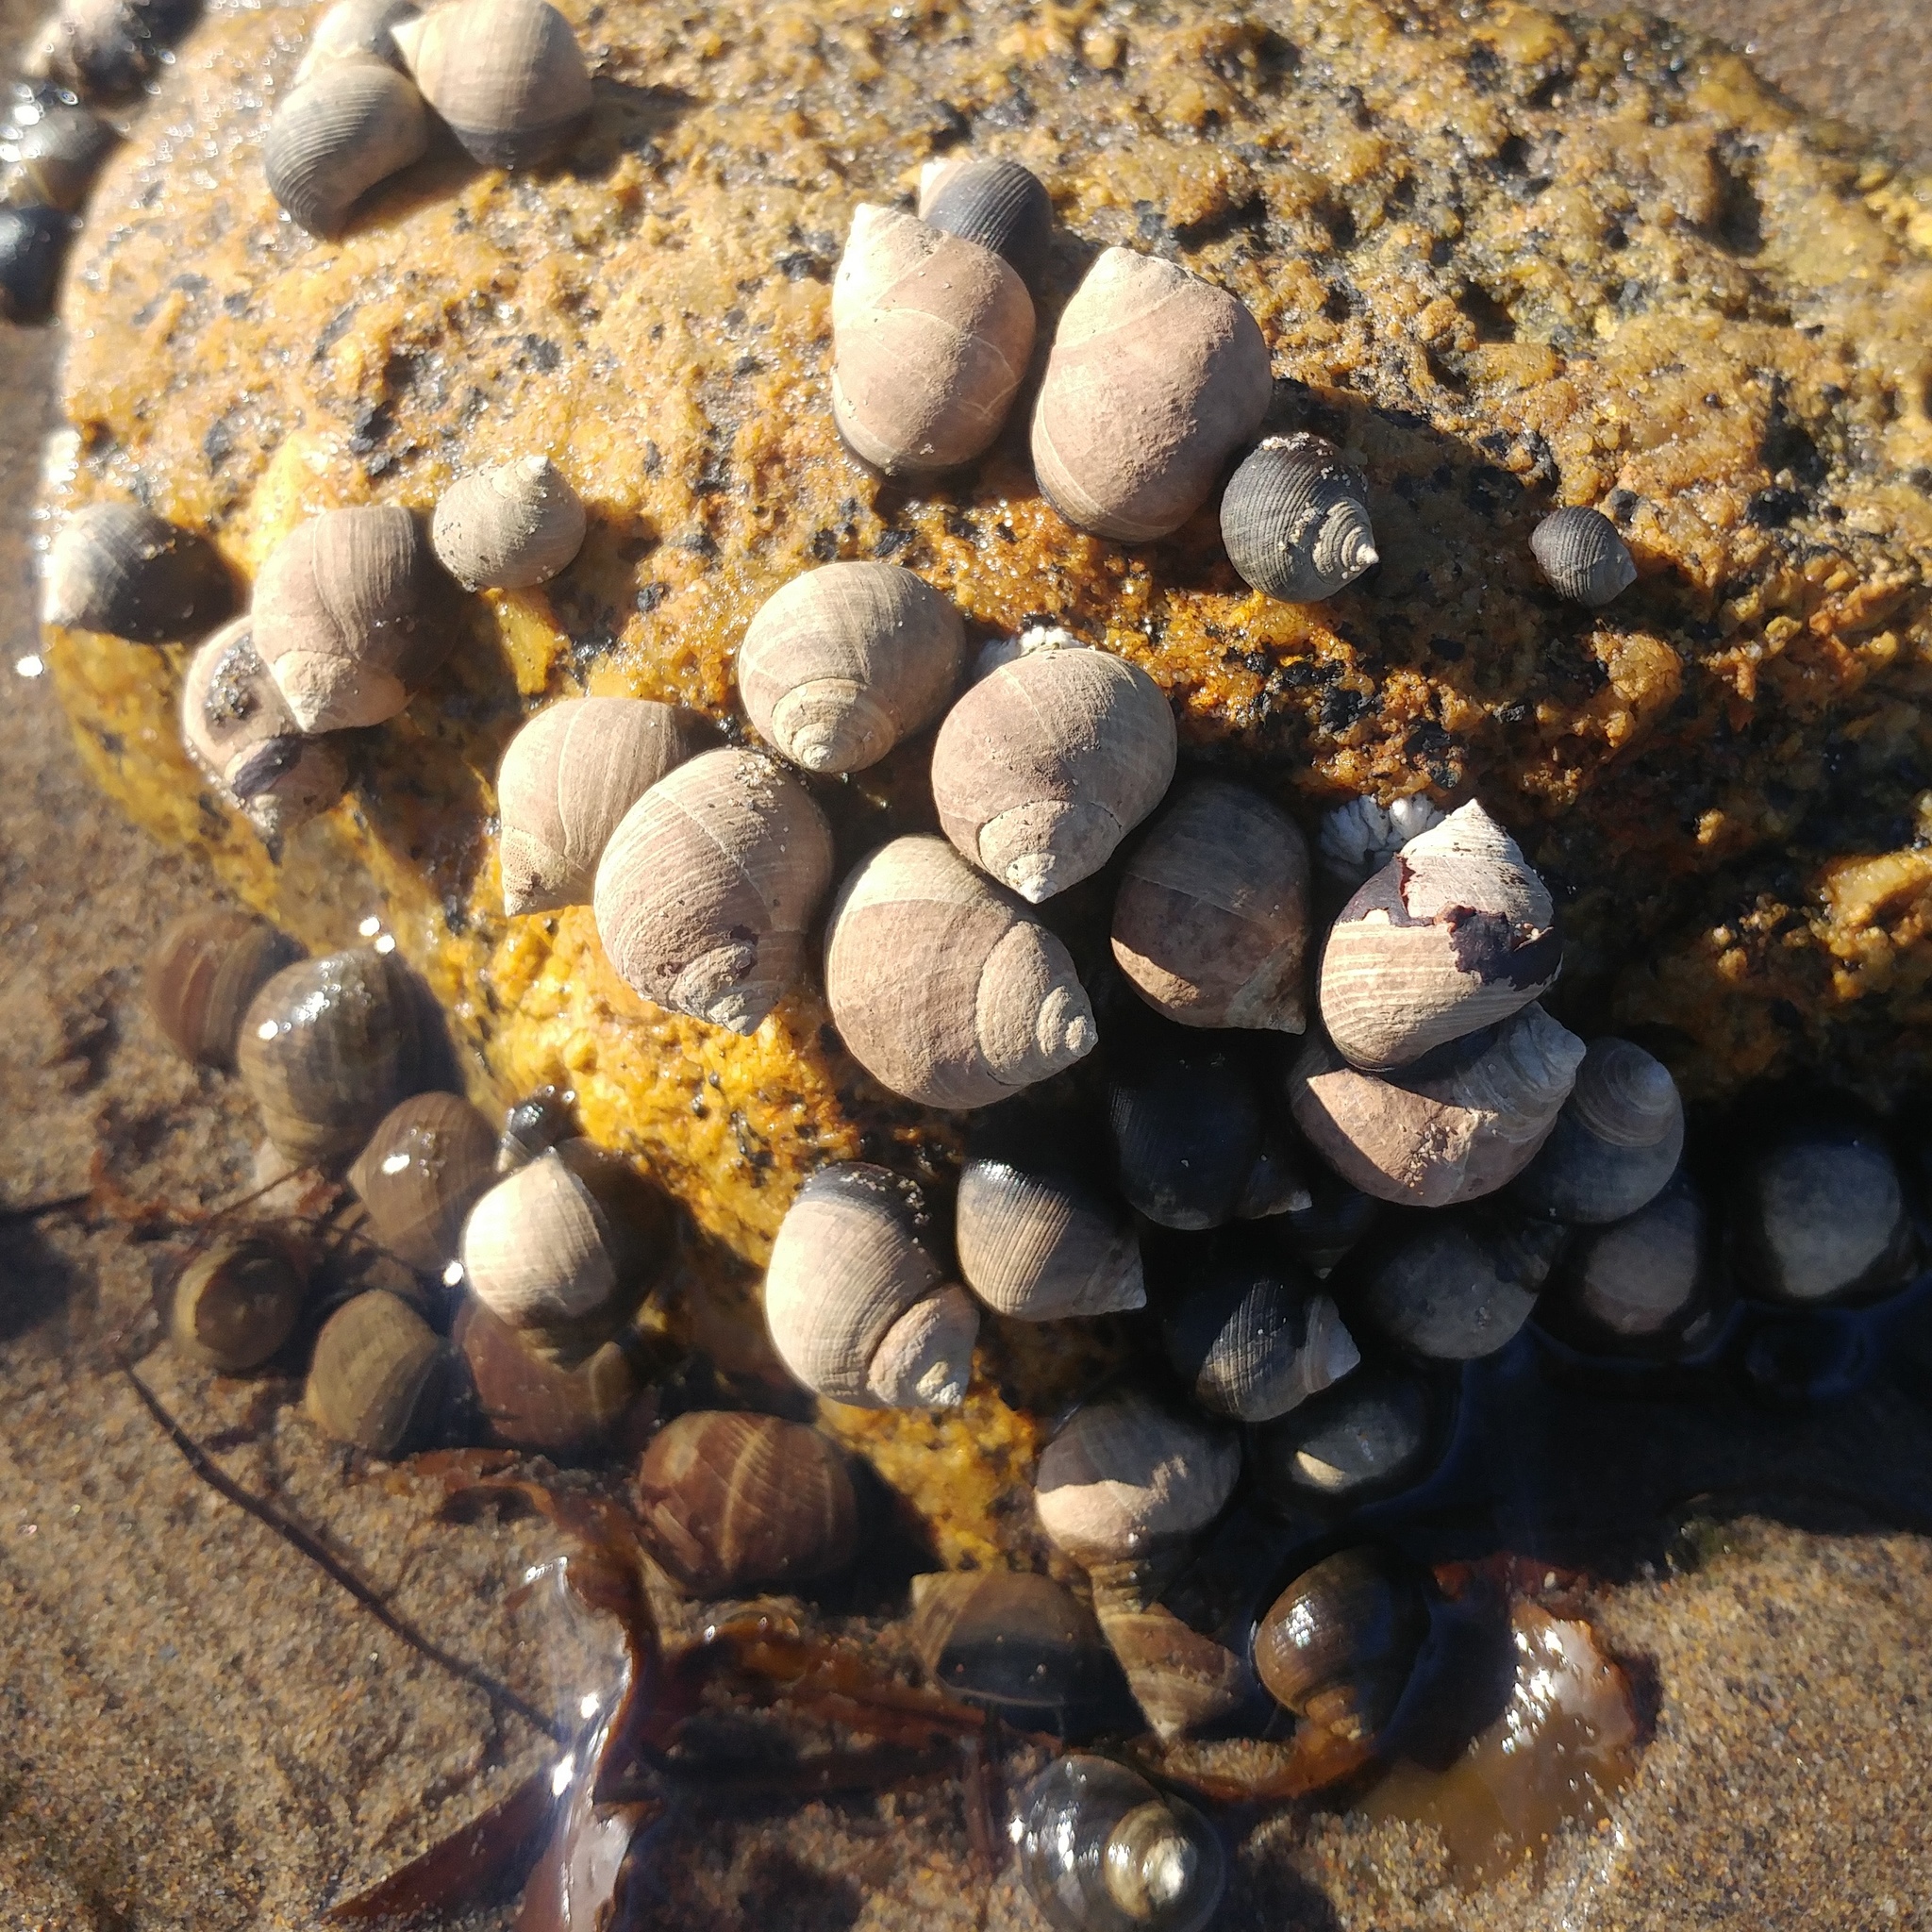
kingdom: Animalia
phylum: Mollusca
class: Gastropoda
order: Littorinimorpha
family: Littorinidae
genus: Littorina
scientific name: Littorina littorea
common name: Common periwinkle
